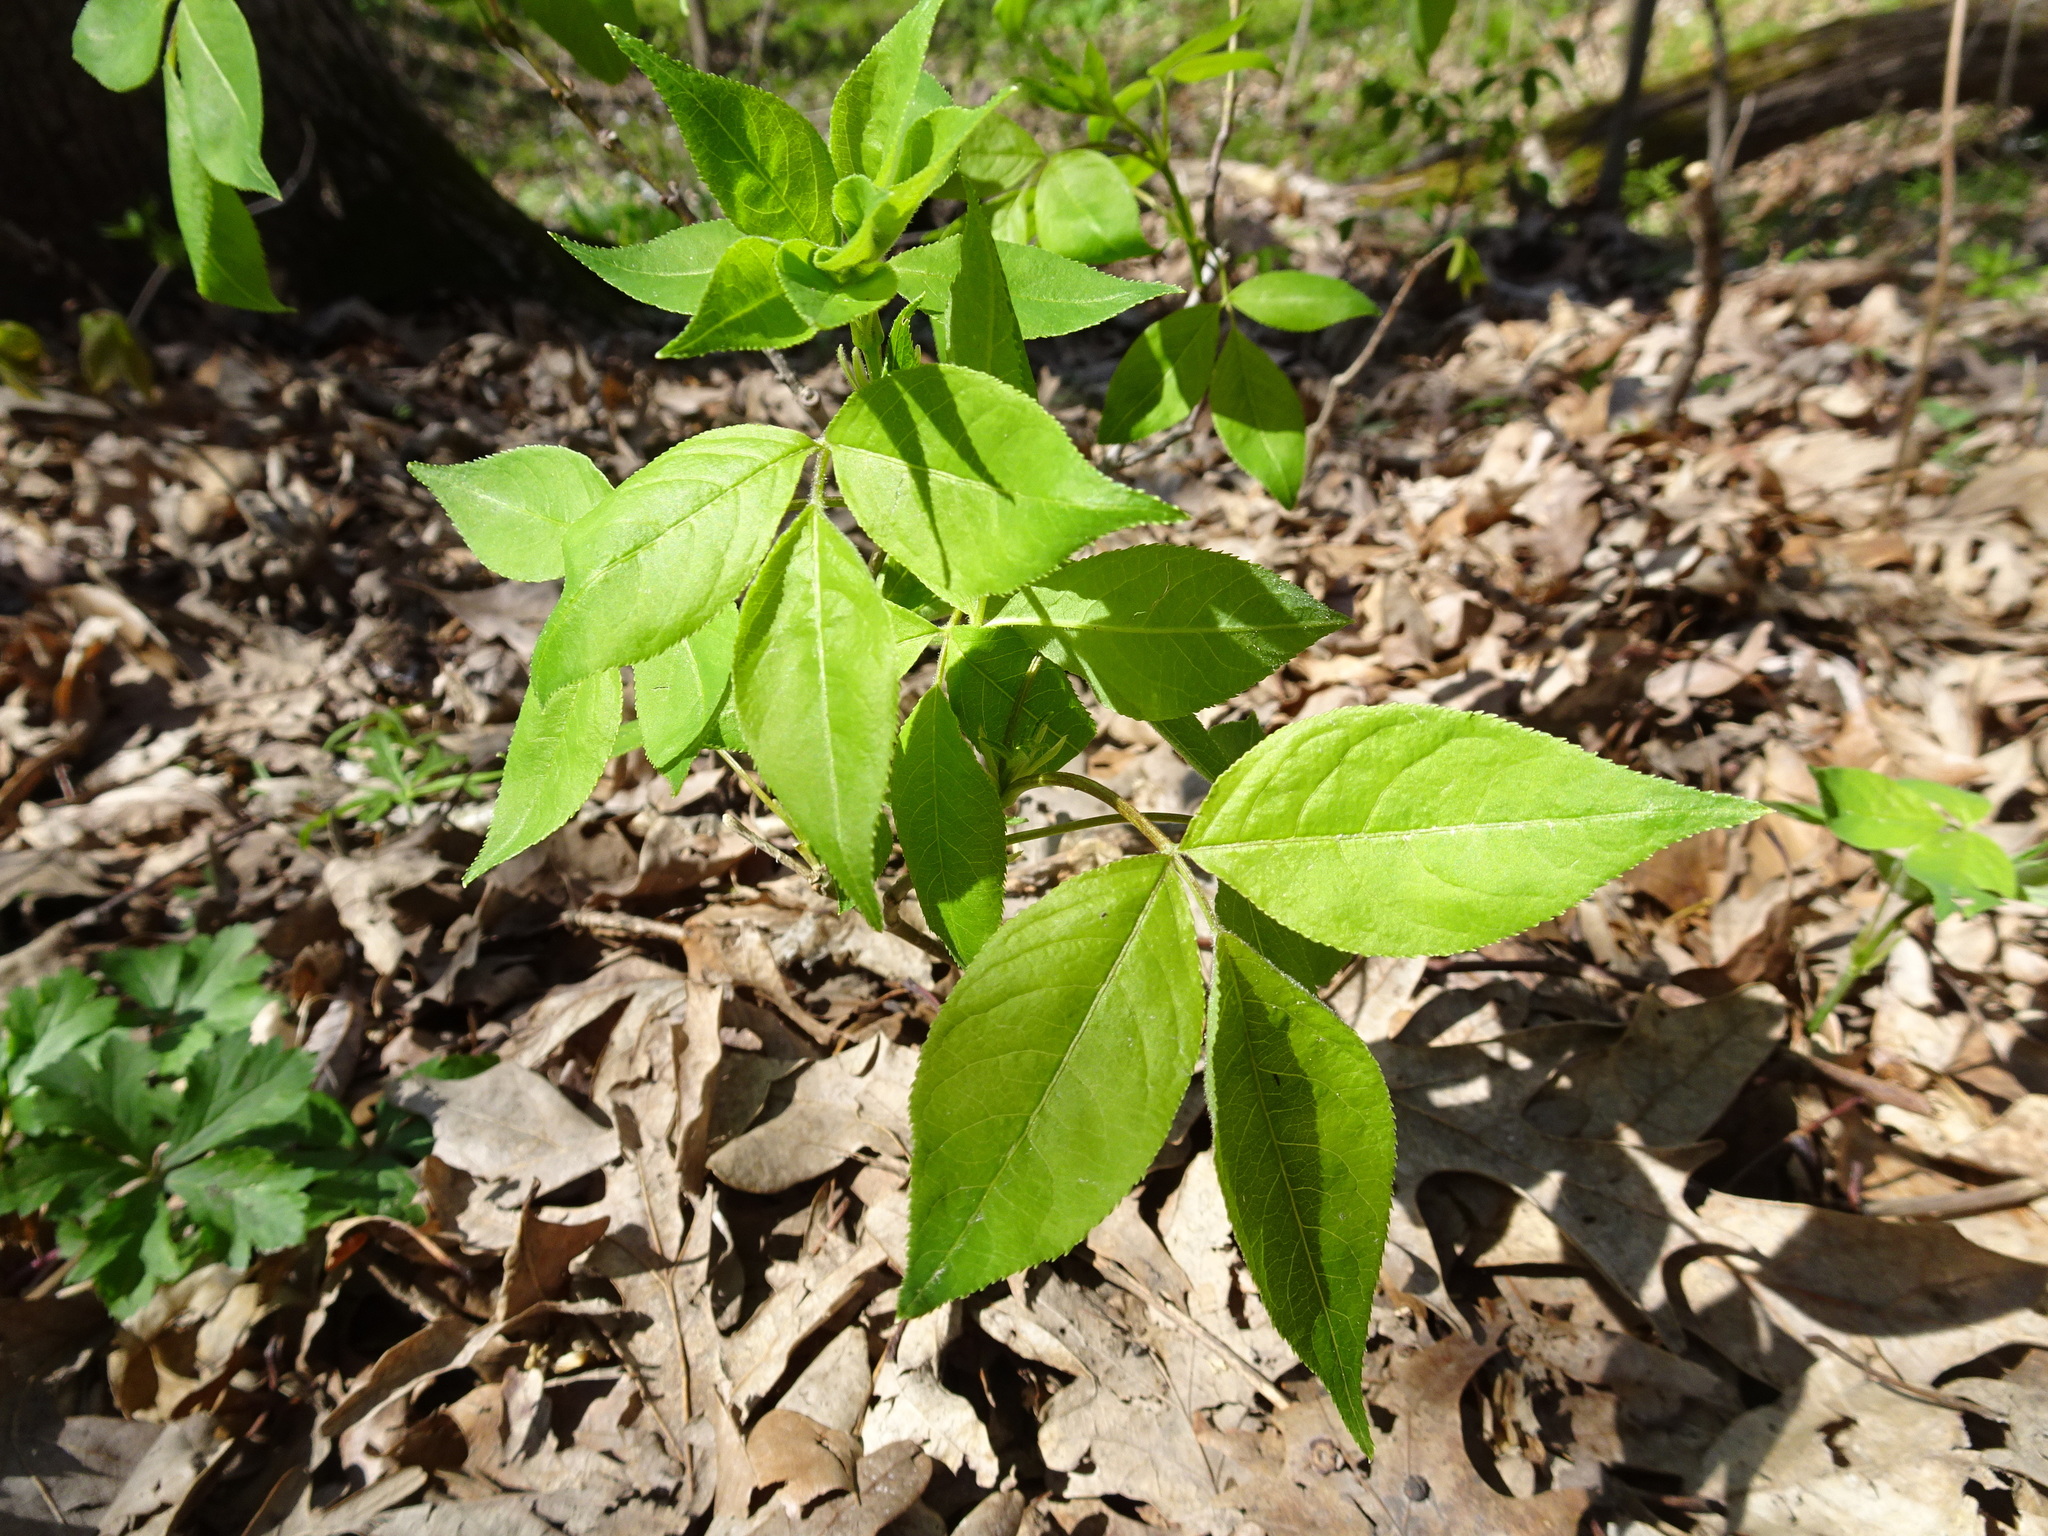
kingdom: Plantae
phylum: Tracheophyta
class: Magnoliopsida
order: Crossosomatales
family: Staphyleaceae
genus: Staphylea
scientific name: Staphylea trifolia
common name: American bladdernut
